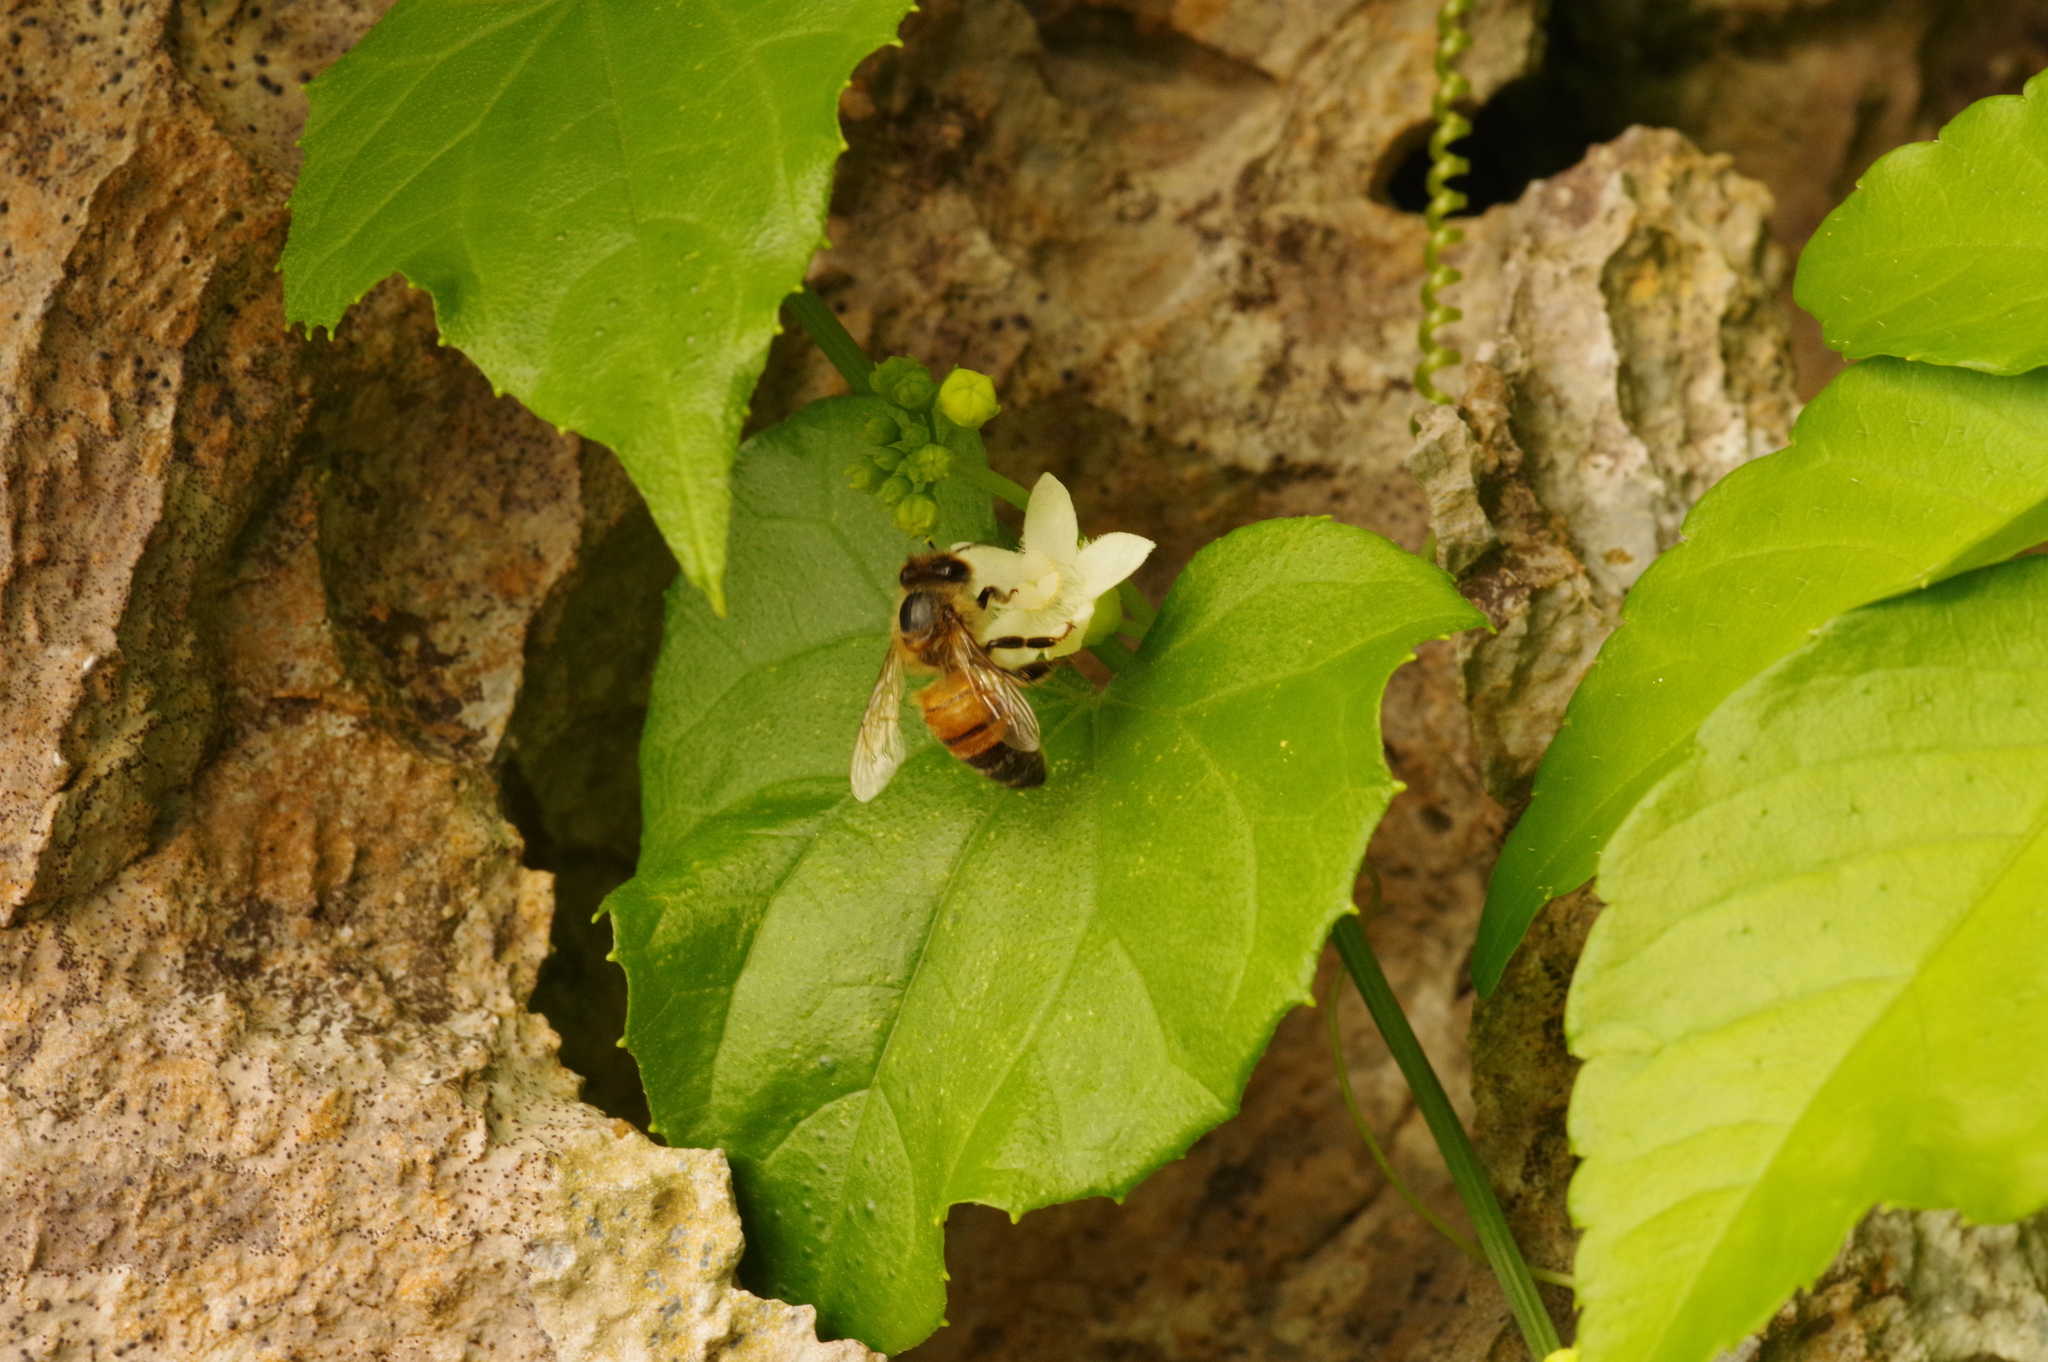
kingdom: Animalia
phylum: Arthropoda
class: Insecta
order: Hymenoptera
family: Apidae
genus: Apis
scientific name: Apis mellifera
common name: Honey bee
